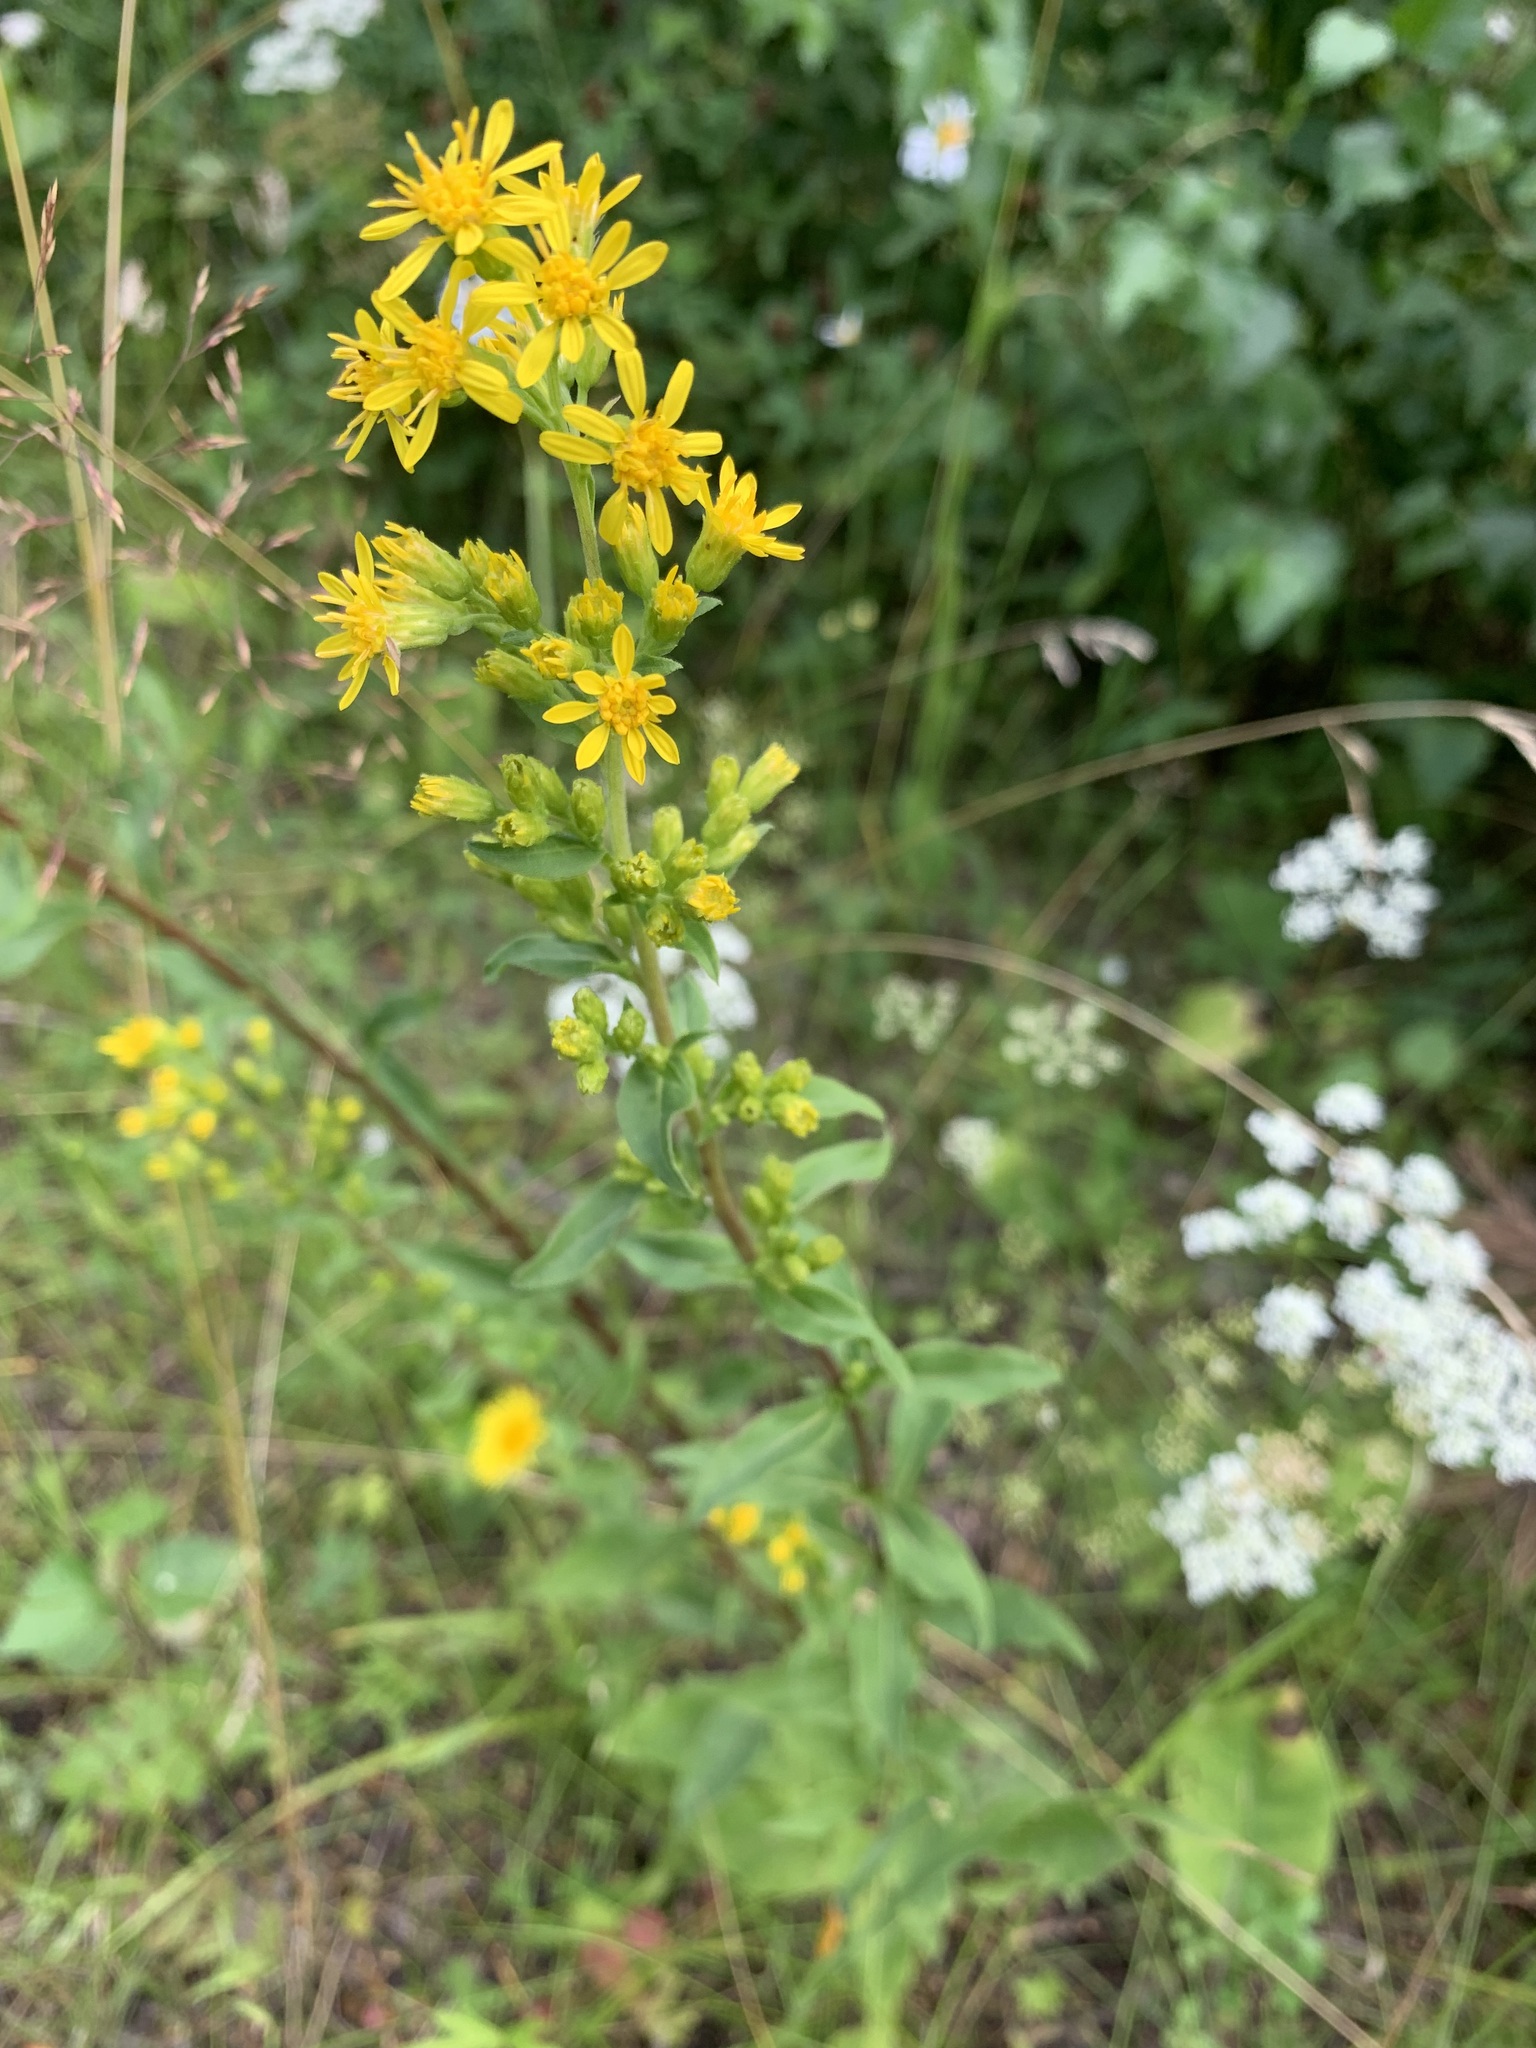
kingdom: Plantae
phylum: Tracheophyta
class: Magnoliopsida
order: Asterales
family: Asteraceae
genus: Solidago
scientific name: Solidago virgaurea
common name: Goldenrod
